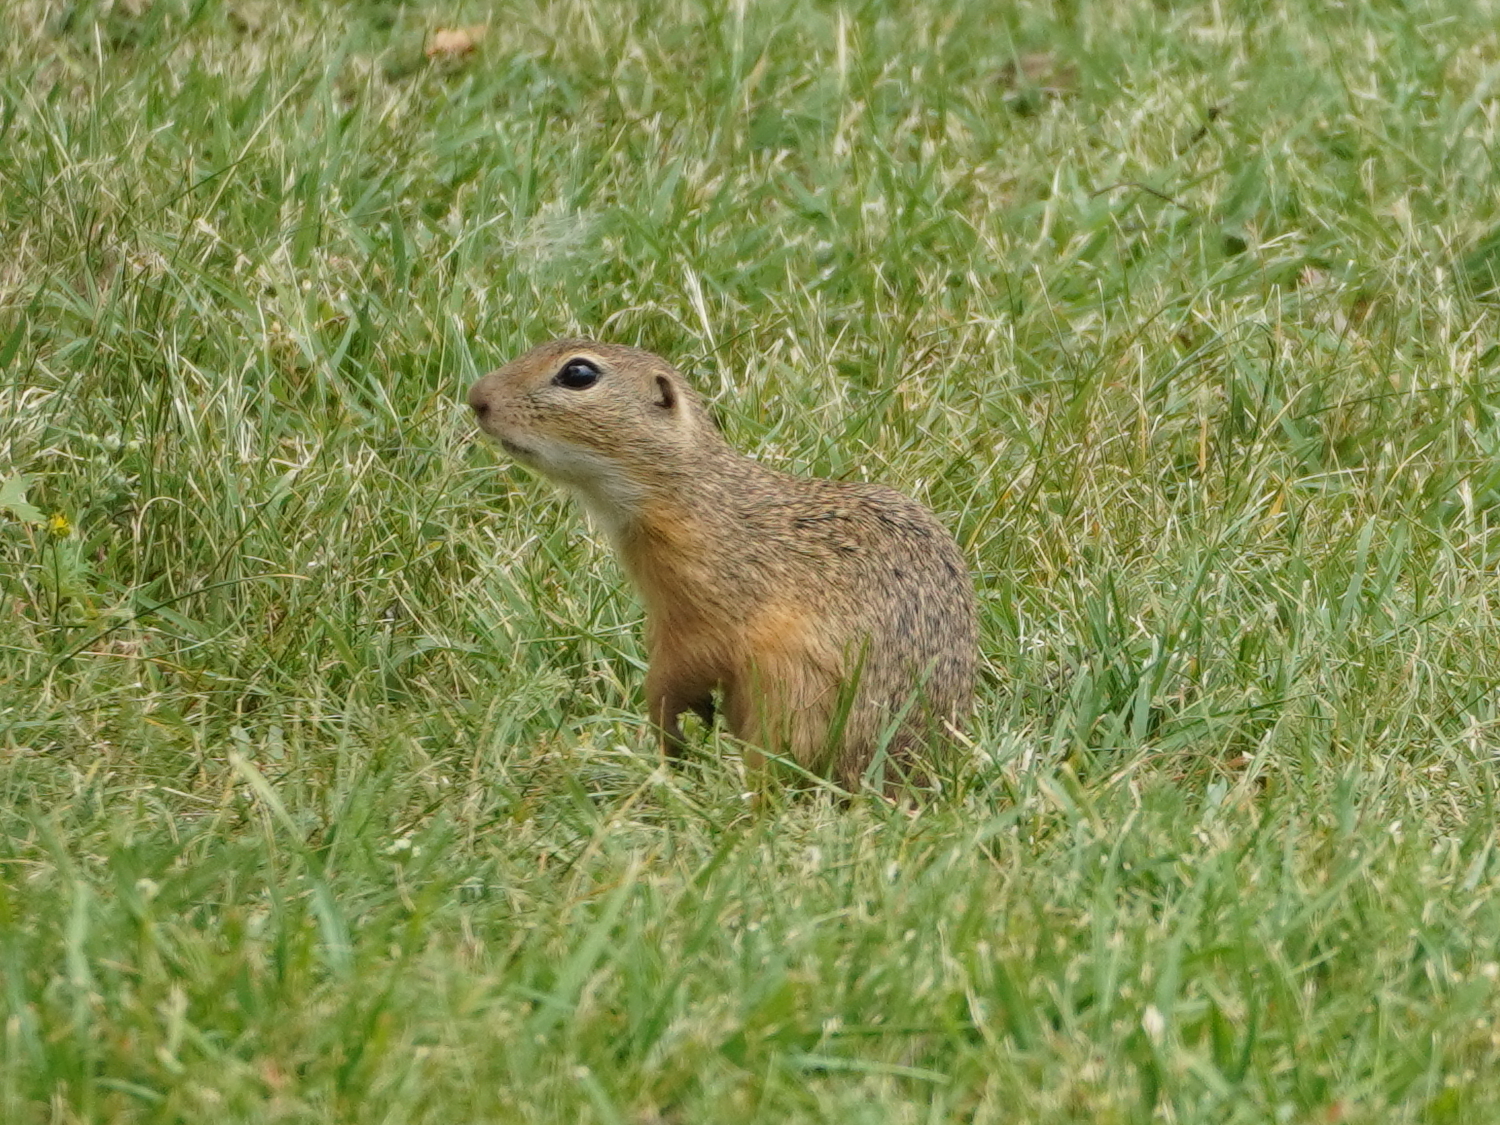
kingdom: Animalia
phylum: Chordata
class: Mammalia
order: Rodentia
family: Sciuridae
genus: Spermophilus
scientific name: Spermophilus citellus
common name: European ground squirrel
